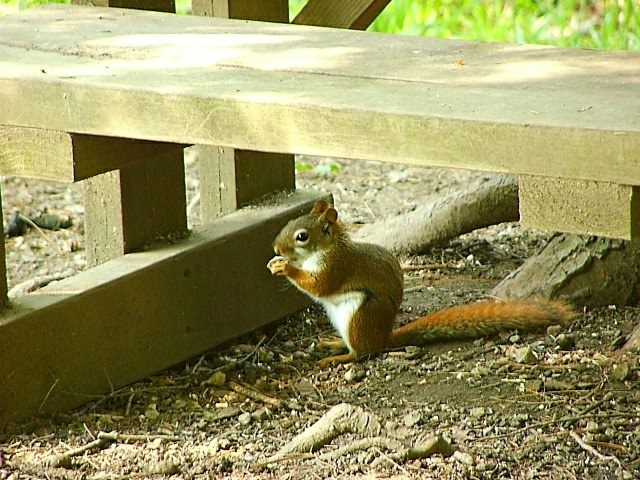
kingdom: Animalia
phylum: Chordata
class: Mammalia
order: Rodentia
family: Sciuridae
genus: Tamiasciurus
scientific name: Tamiasciurus hudsonicus
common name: Red squirrel
